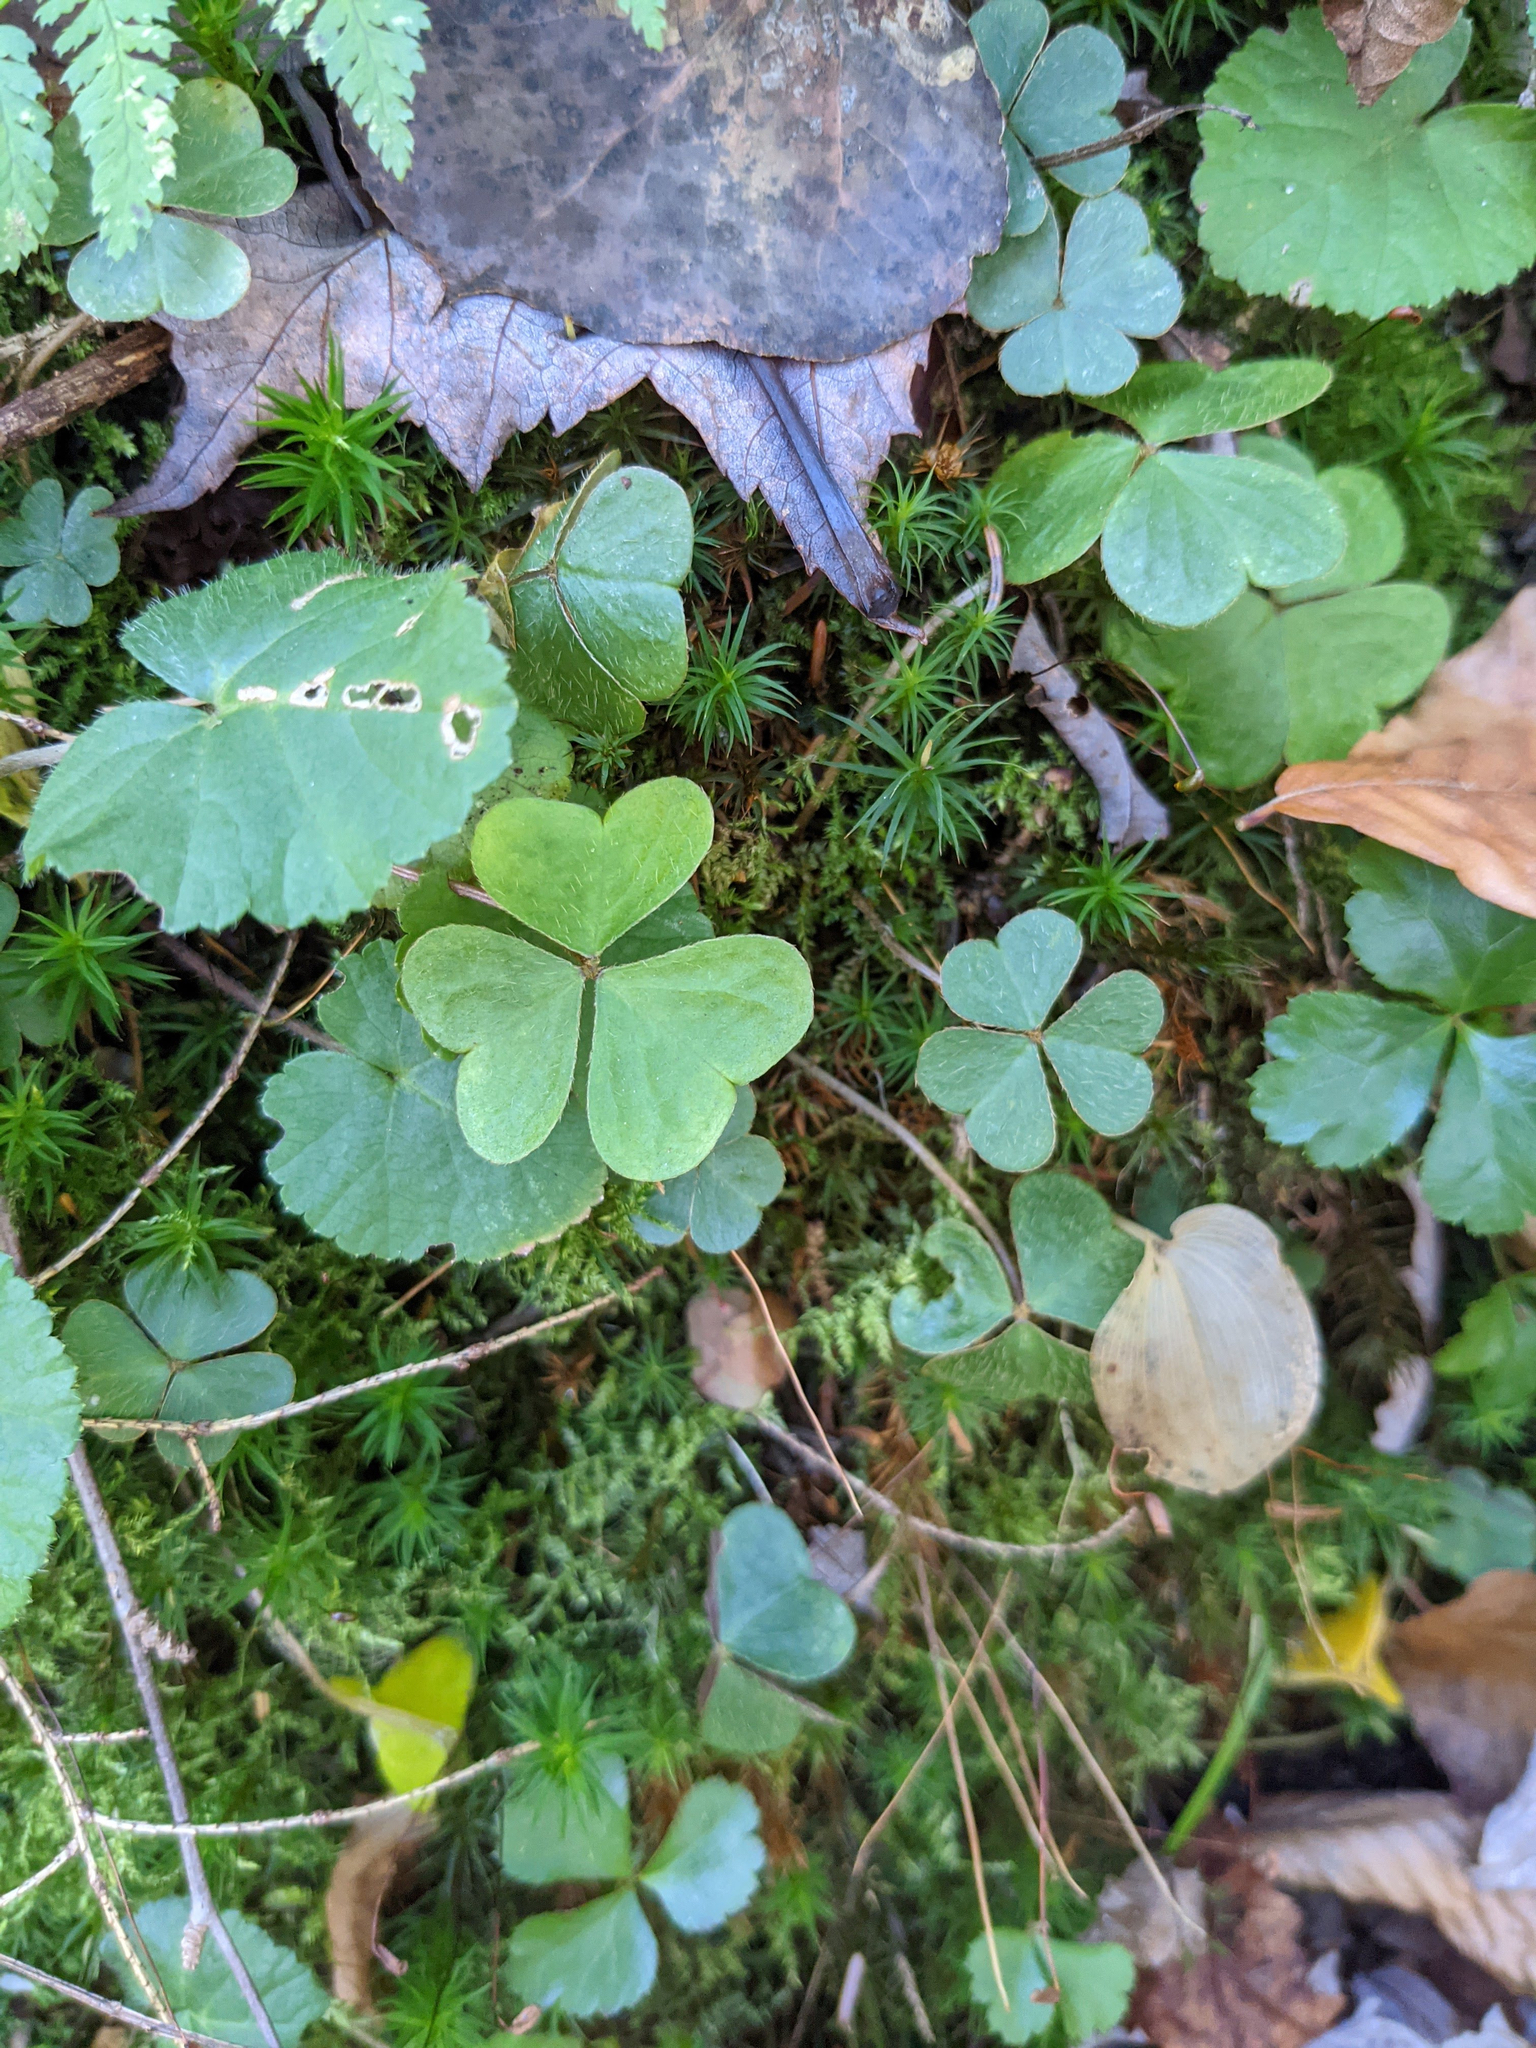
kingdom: Plantae
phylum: Tracheophyta
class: Magnoliopsida
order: Oxalidales
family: Oxalidaceae
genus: Oxalis
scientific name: Oxalis montana
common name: American wood-sorrel
